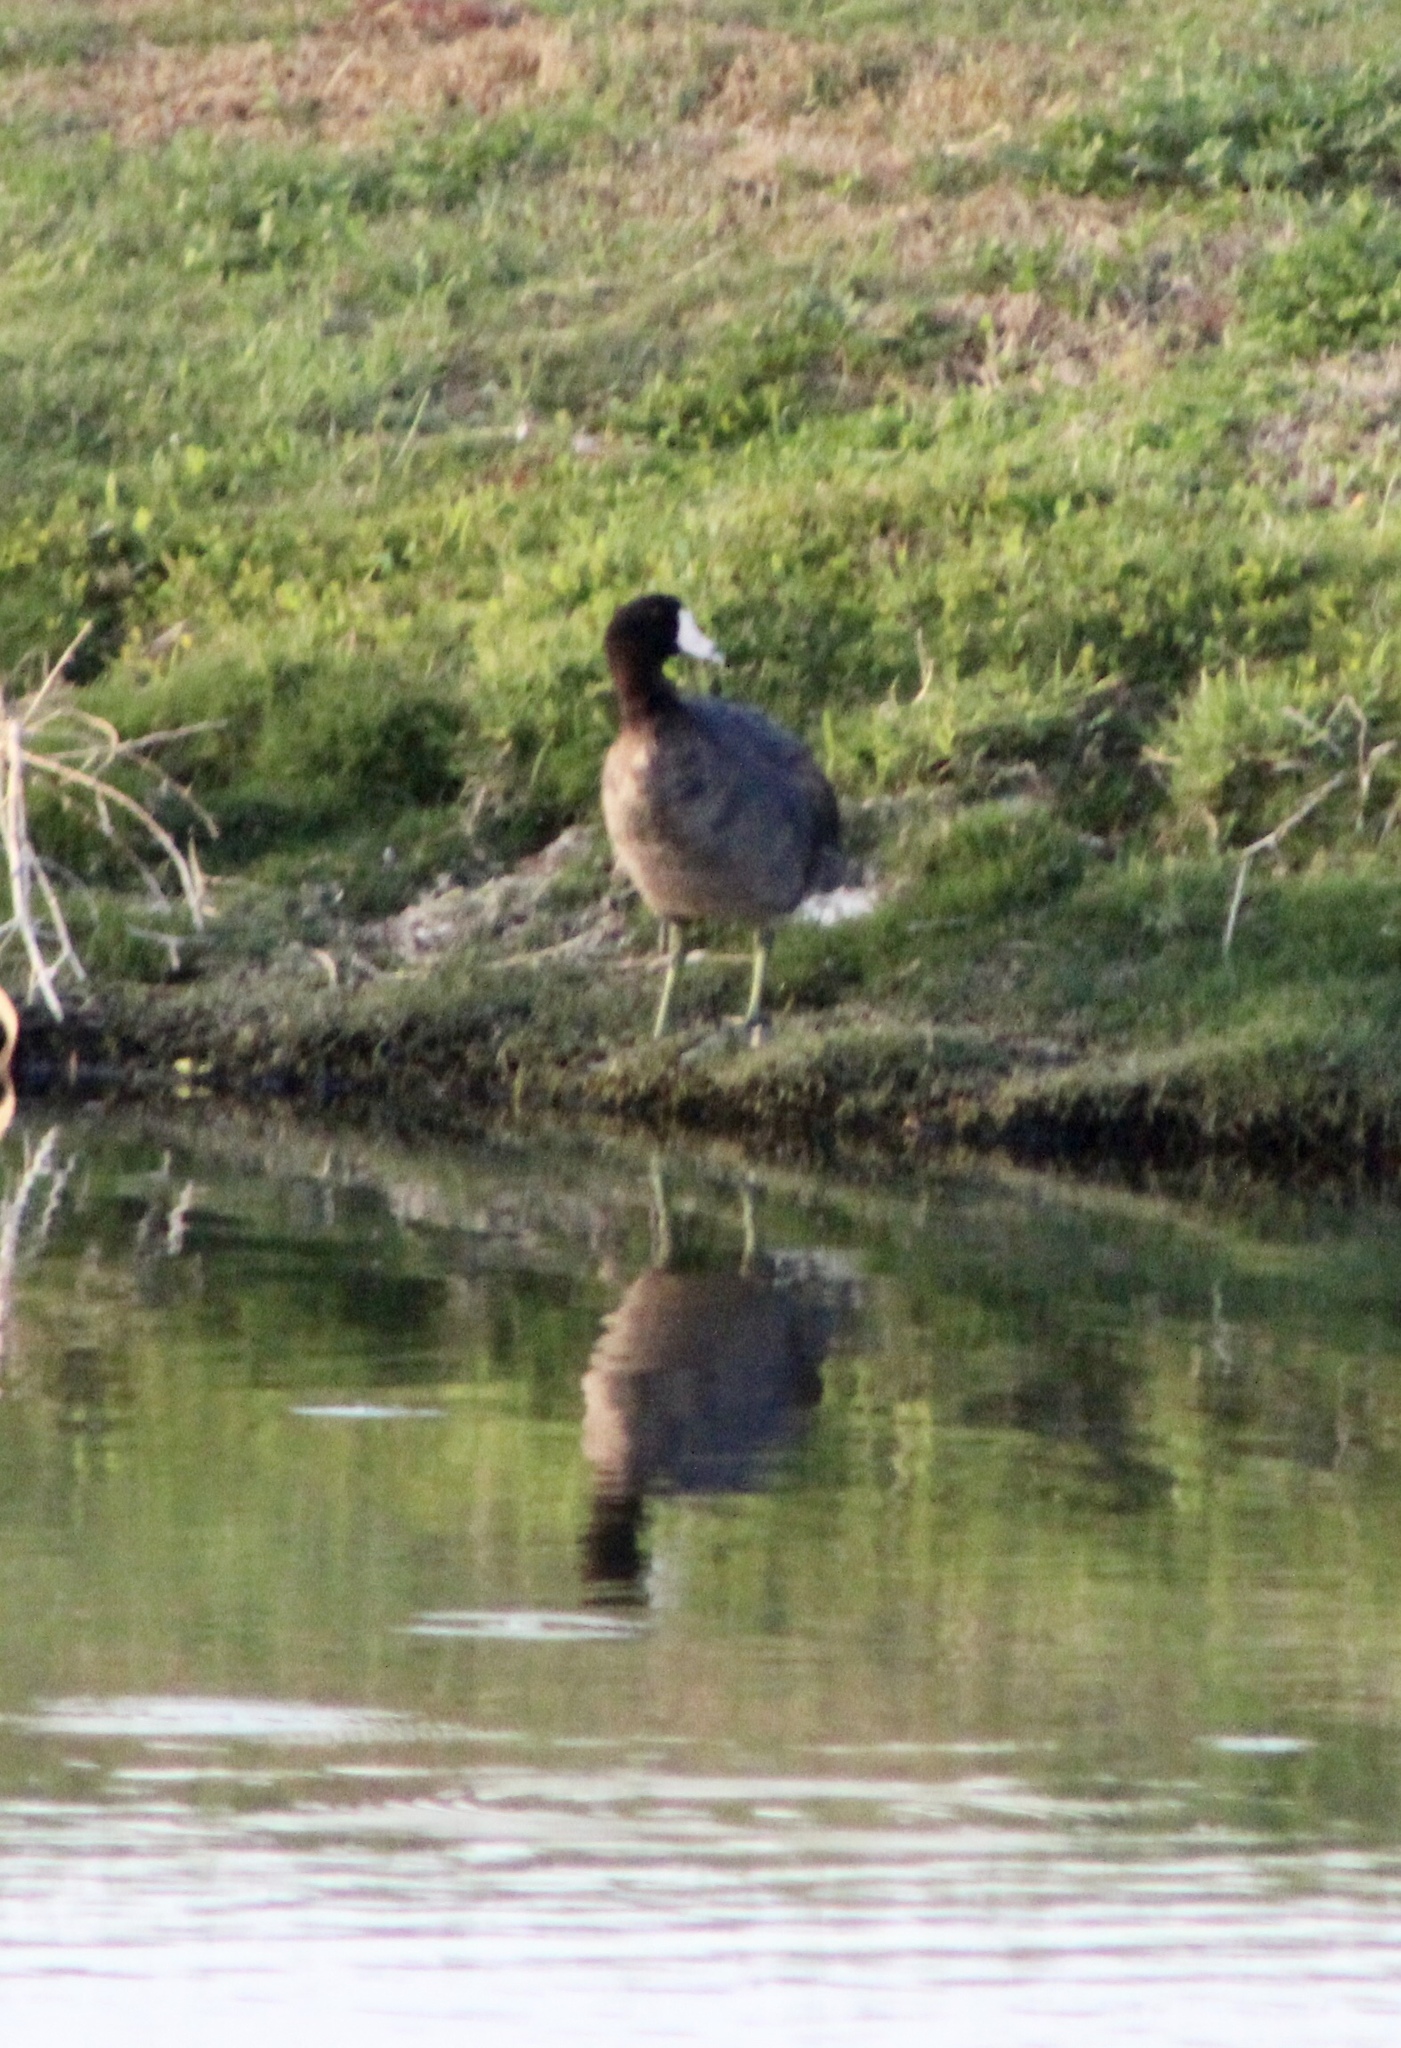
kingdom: Animalia
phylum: Chordata
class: Aves
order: Gruiformes
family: Rallidae
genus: Fulica
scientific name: Fulica americana
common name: American coot
